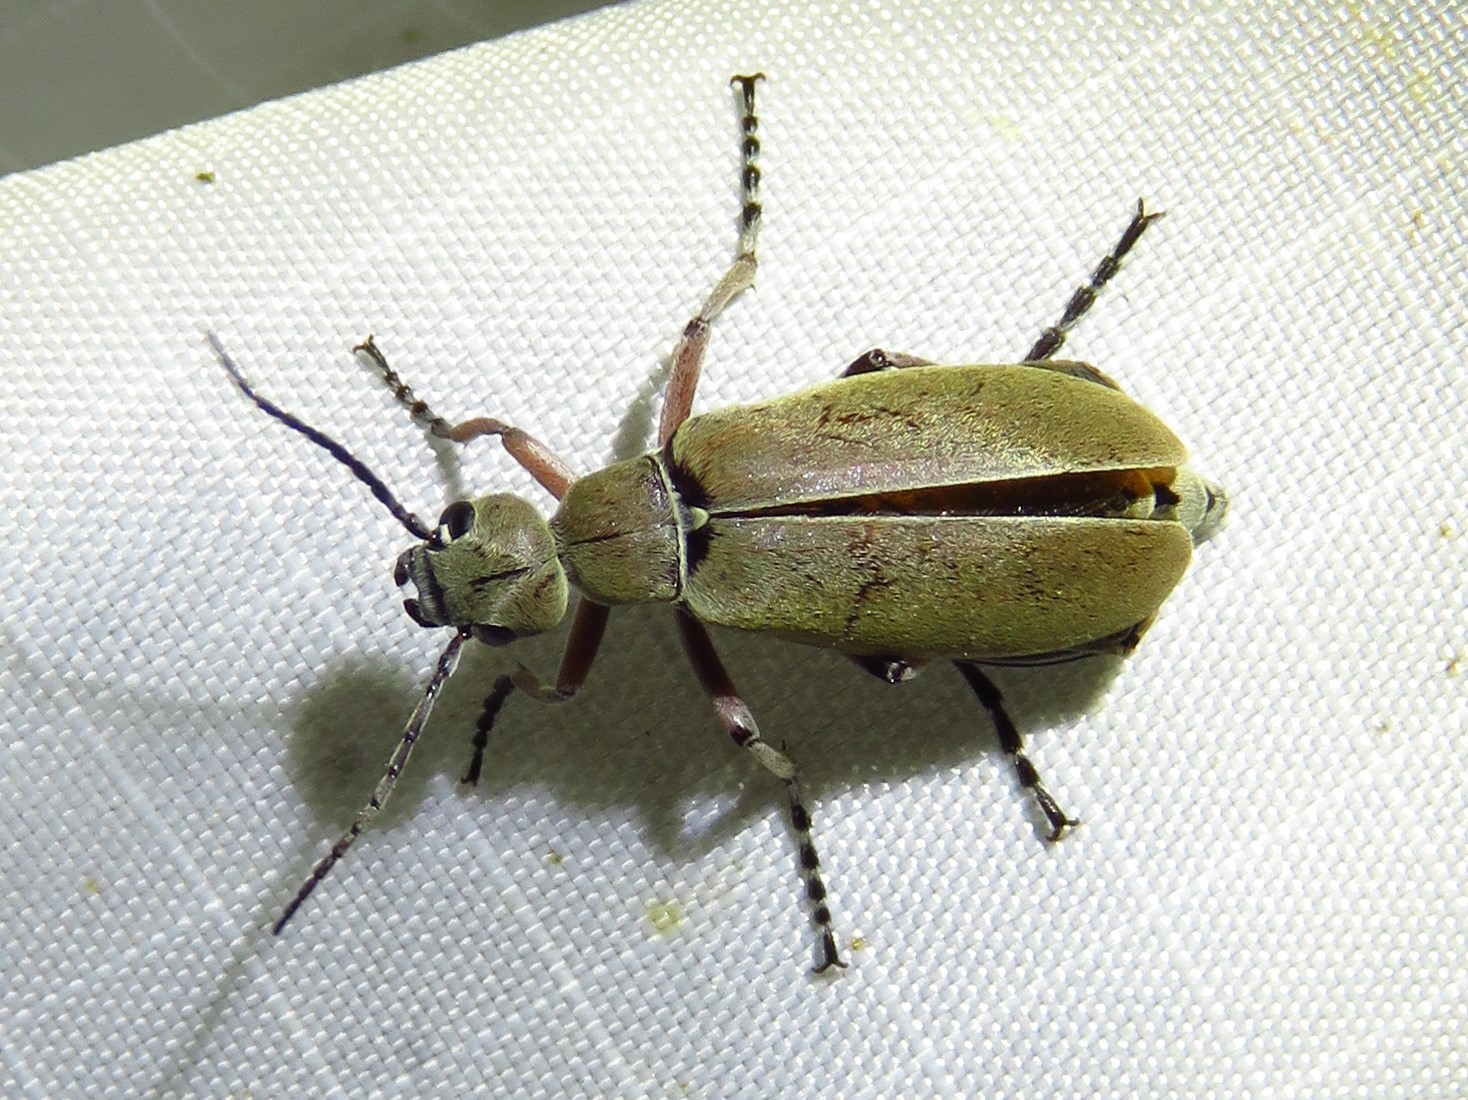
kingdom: Animalia
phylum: Arthropoda
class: Insecta
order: Coleoptera
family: Meloidae
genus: Epicauta
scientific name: Epicauta nigritarsis
